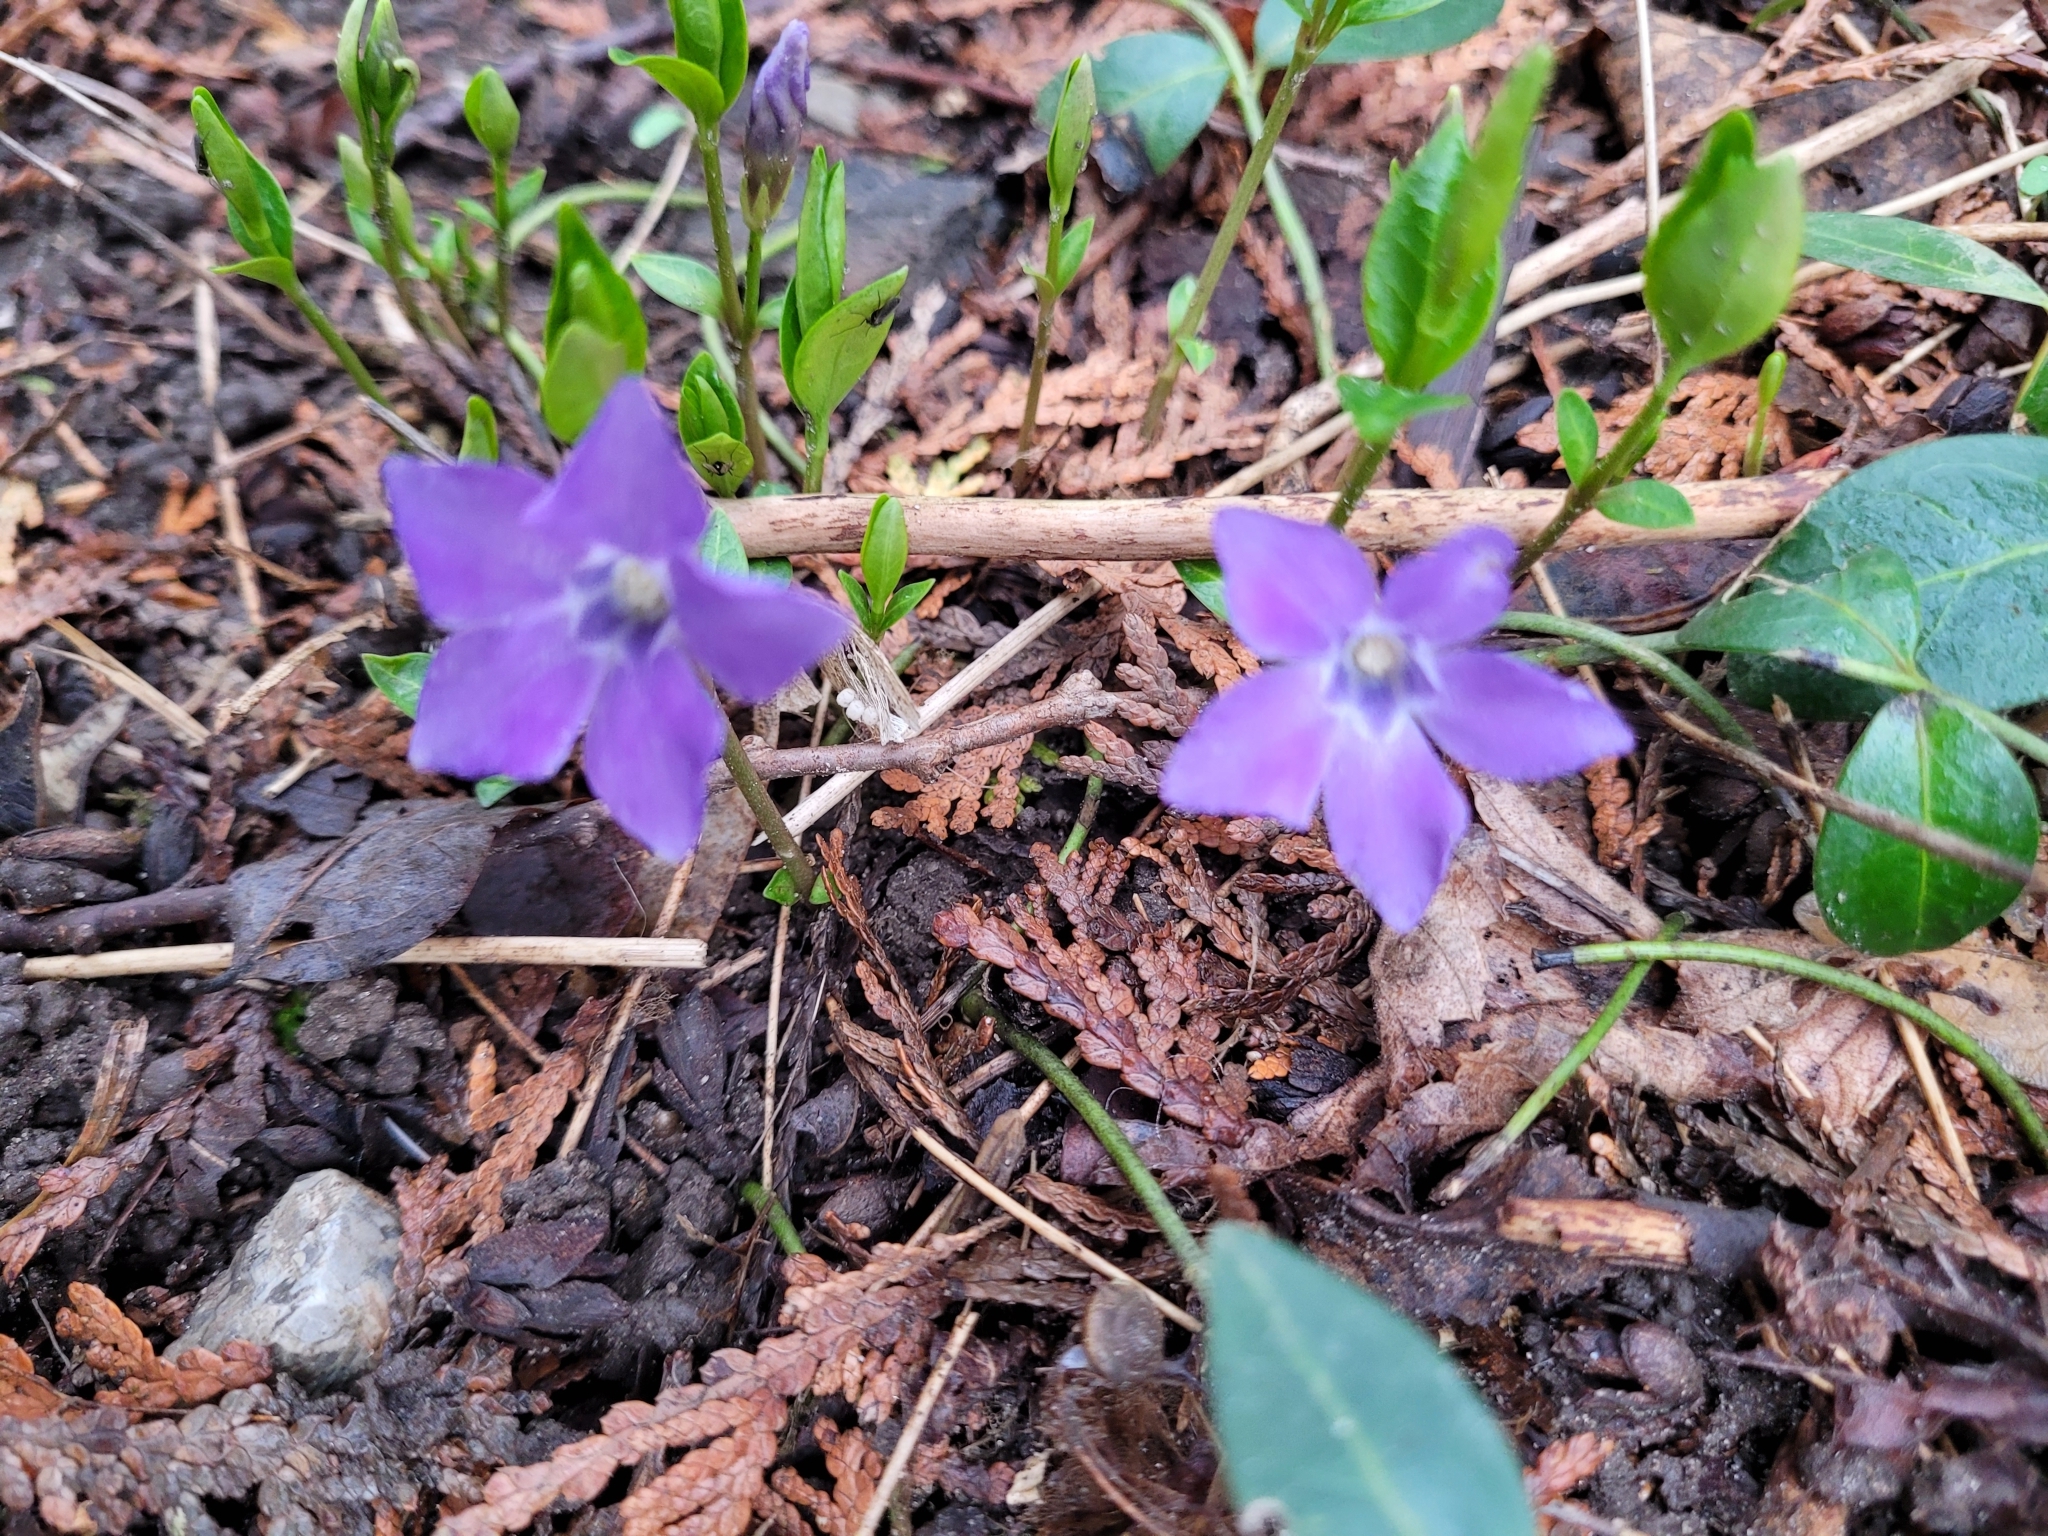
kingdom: Plantae
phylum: Tracheophyta
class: Magnoliopsida
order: Gentianales
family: Apocynaceae
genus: Vinca
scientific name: Vinca minor
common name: Lesser periwinkle
